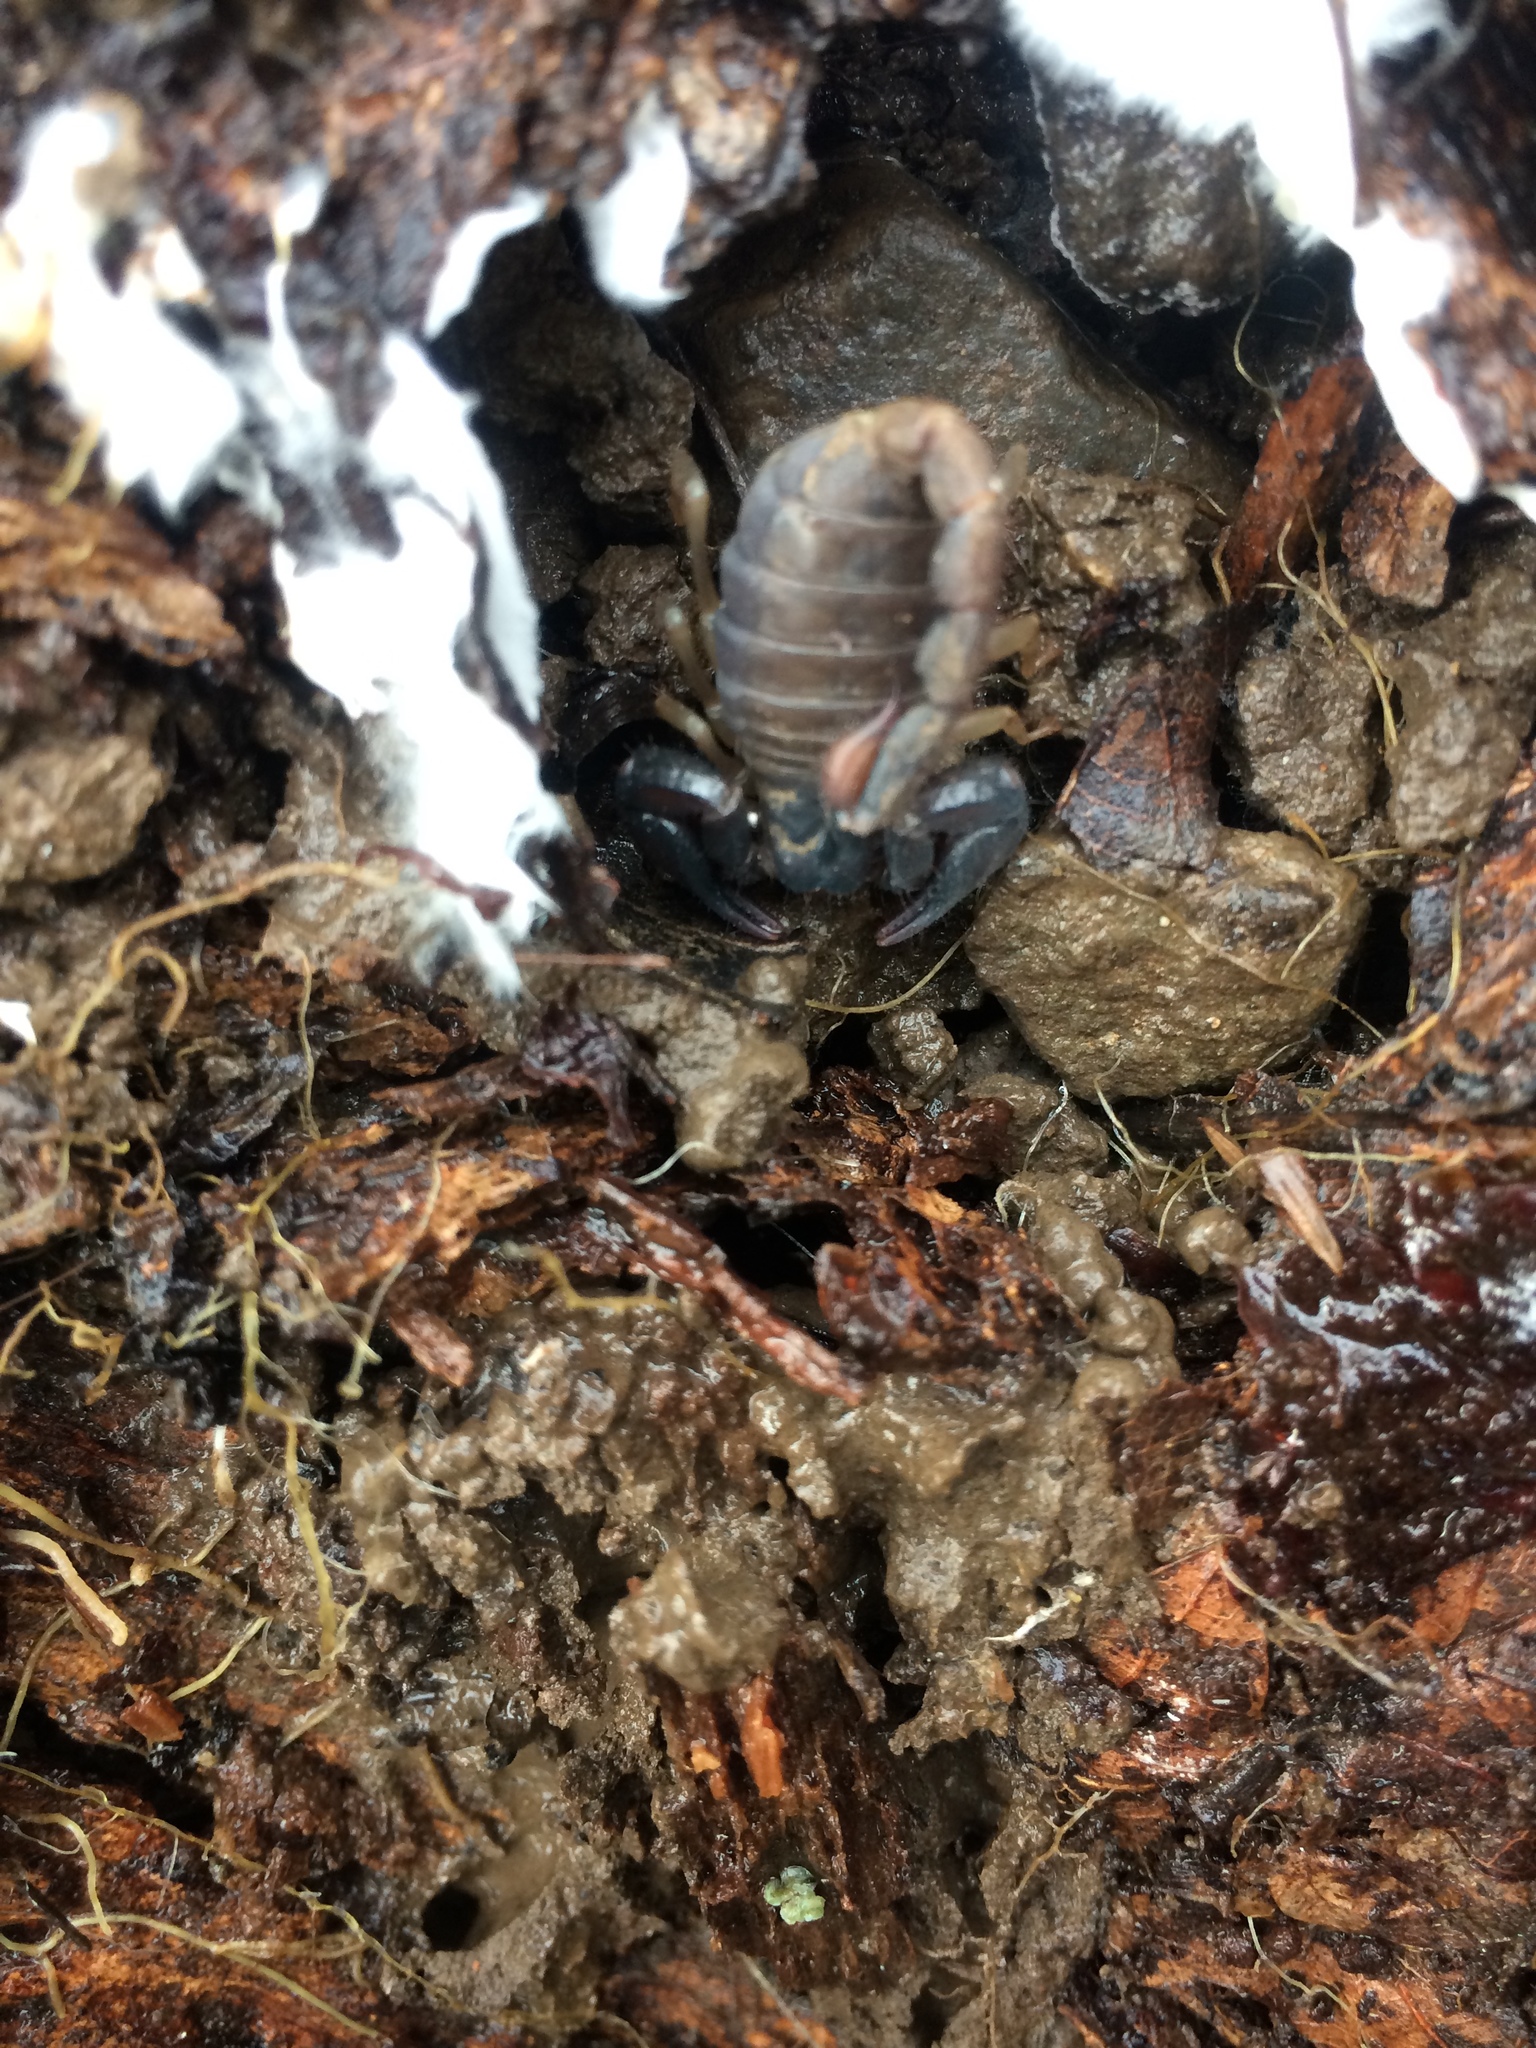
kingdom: Animalia
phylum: Arthropoda
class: Arachnida
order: Scorpiones
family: Chactidae
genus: Uroctonus
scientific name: Uroctonus mordax
